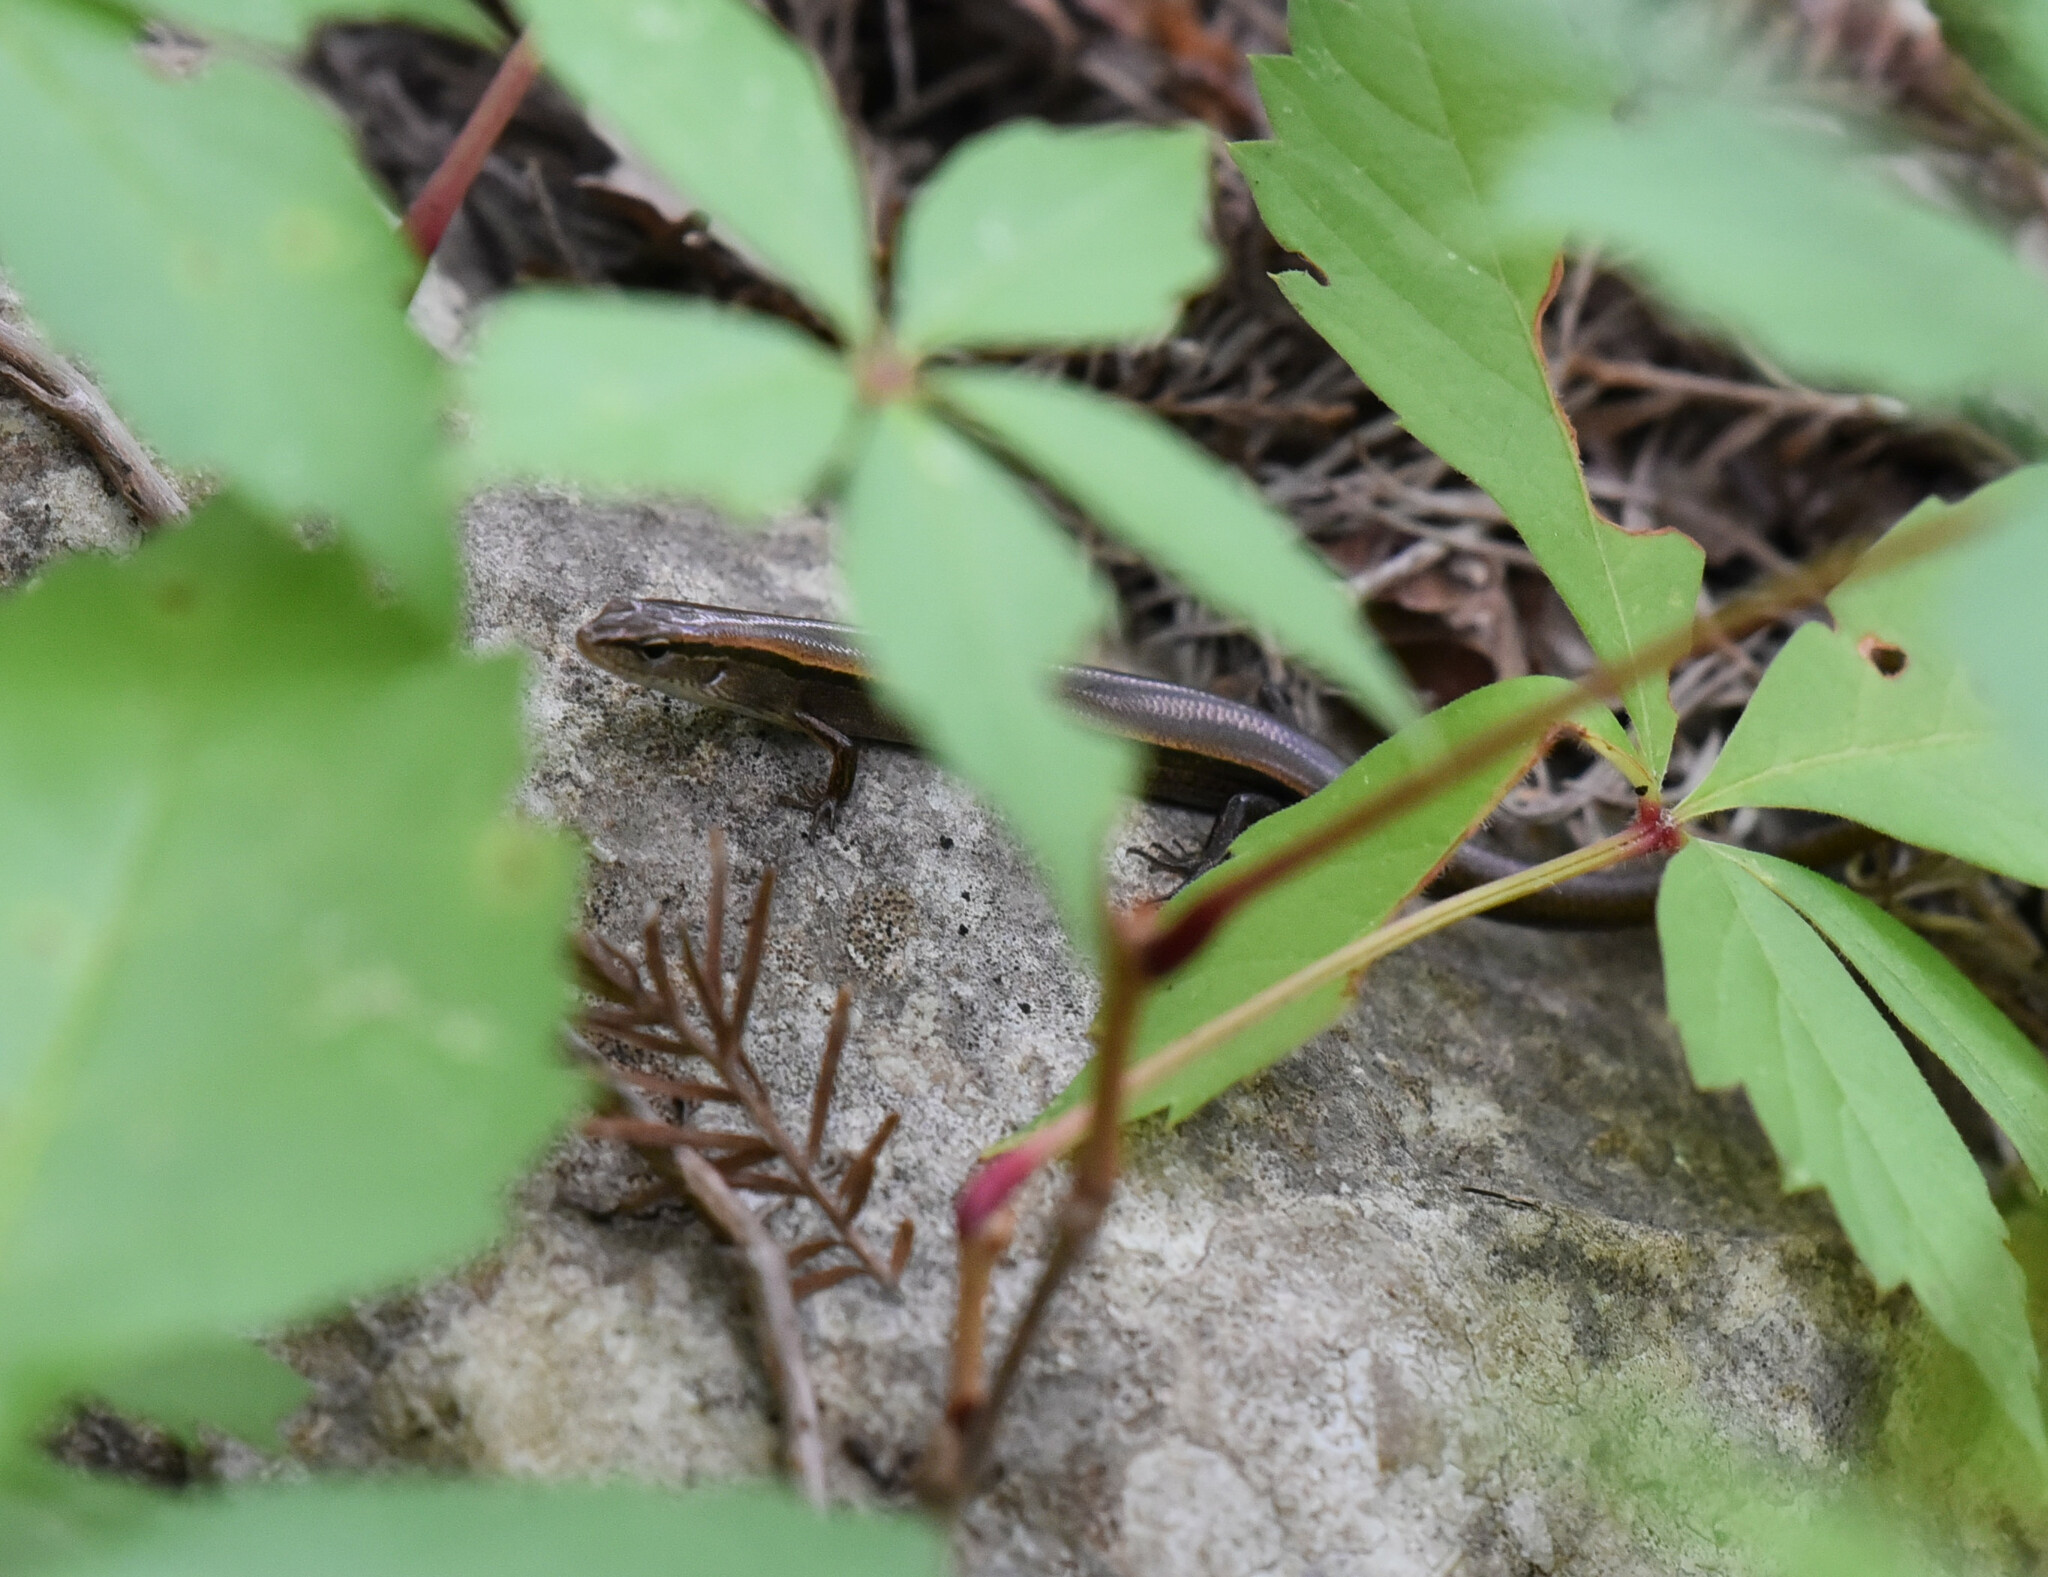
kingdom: Animalia
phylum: Chordata
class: Squamata
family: Scincidae
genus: Scincella
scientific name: Scincella lateralis
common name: Ground skink
